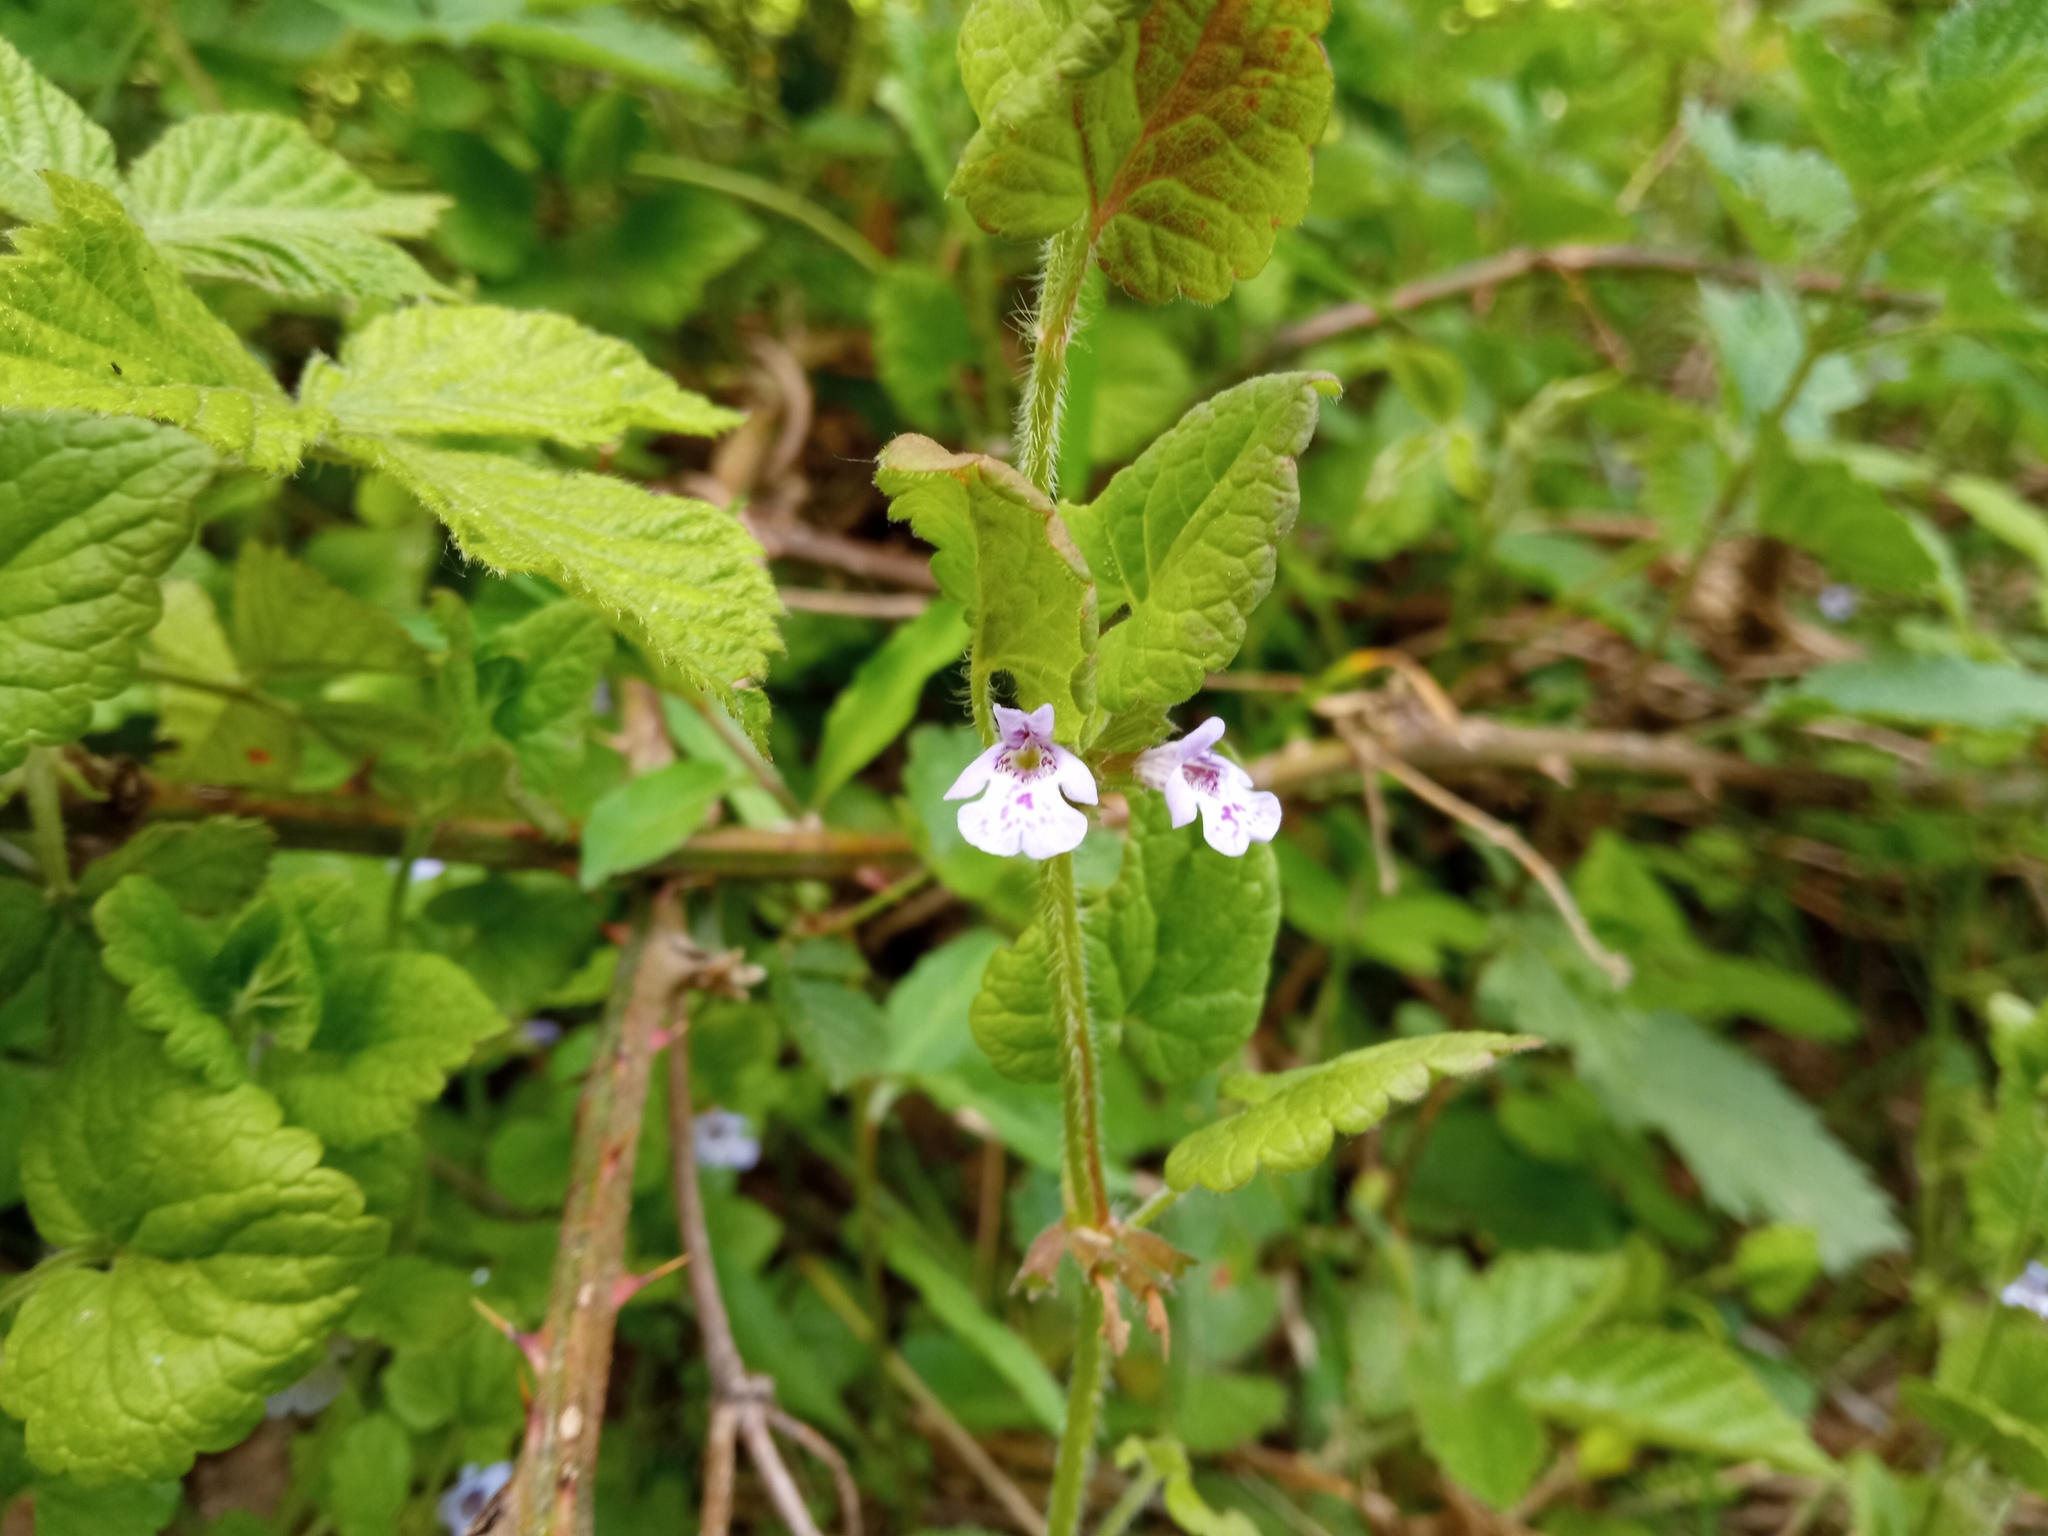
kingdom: Plantae
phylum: Tracheophyta
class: Magnoliopsida
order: Lamiales
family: Lamiaceae
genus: Glechoma
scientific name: Glechoma hederacea
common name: Ground ivy
